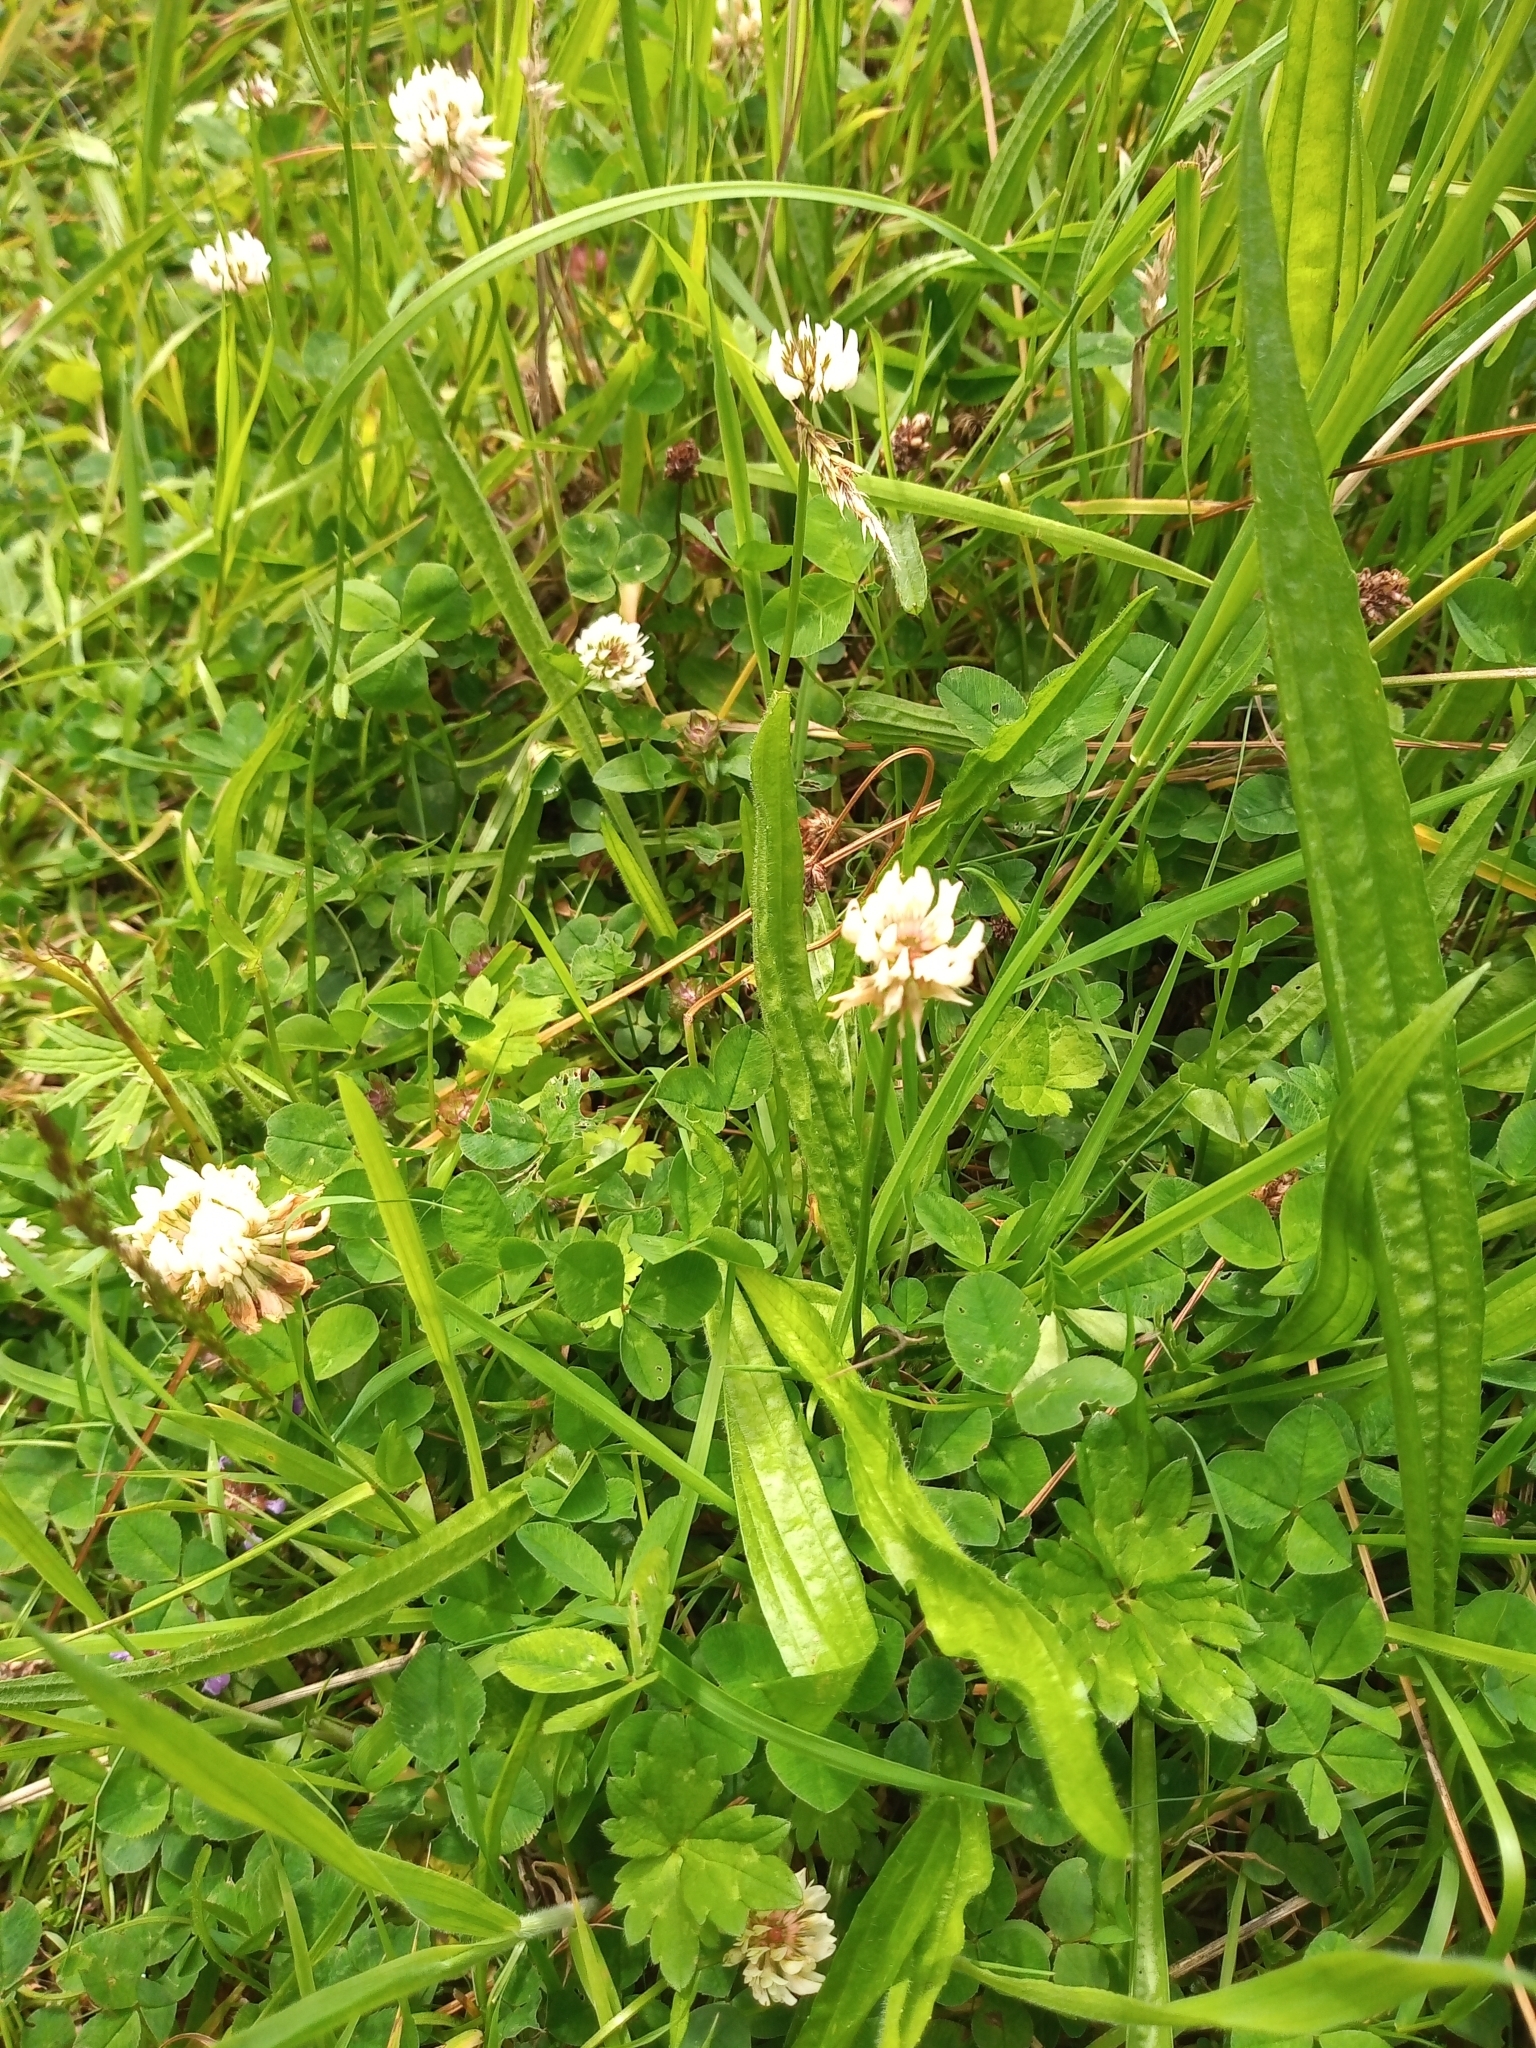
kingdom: Plantae
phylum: Tracheophyta
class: Magnoliopsida
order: Fabales
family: Fabaceae
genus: Trifolium
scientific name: Trifolium repens
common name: White clover
